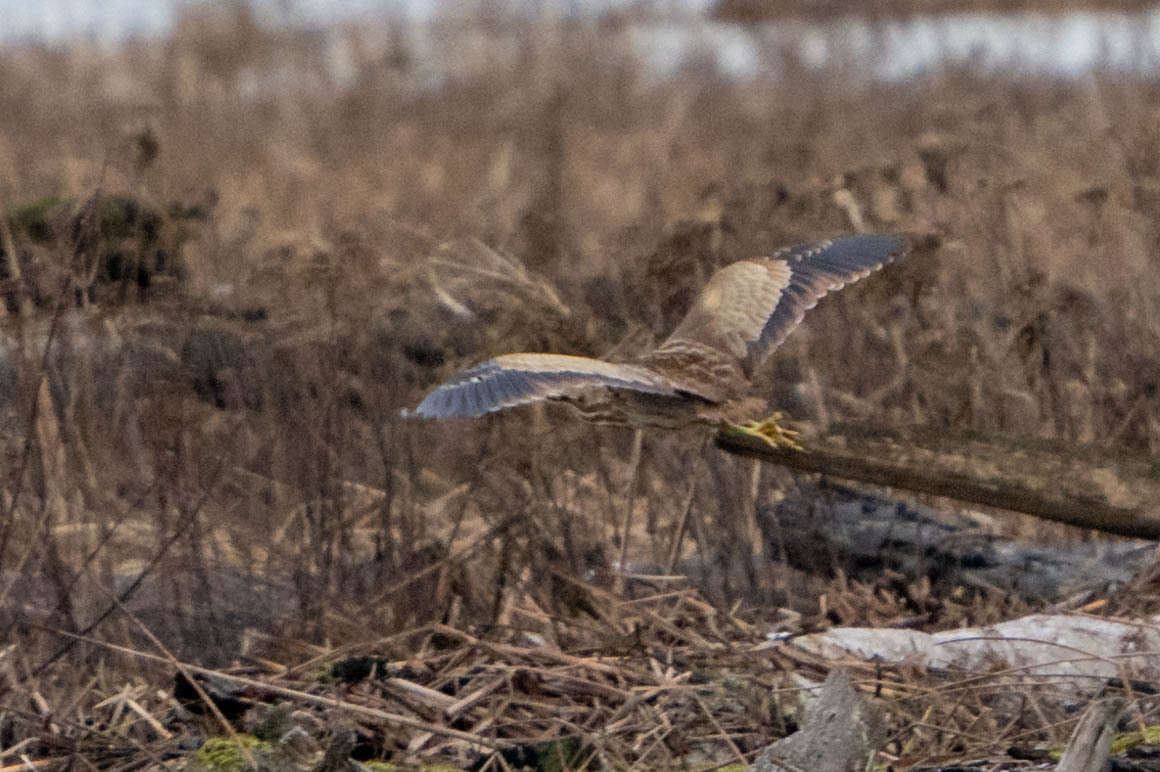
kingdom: Animalia
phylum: Chordata
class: Aves
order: Pelecaniformes
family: Ardeidae
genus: Botaurus
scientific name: Botaurus lentiginosus
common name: American bittern
